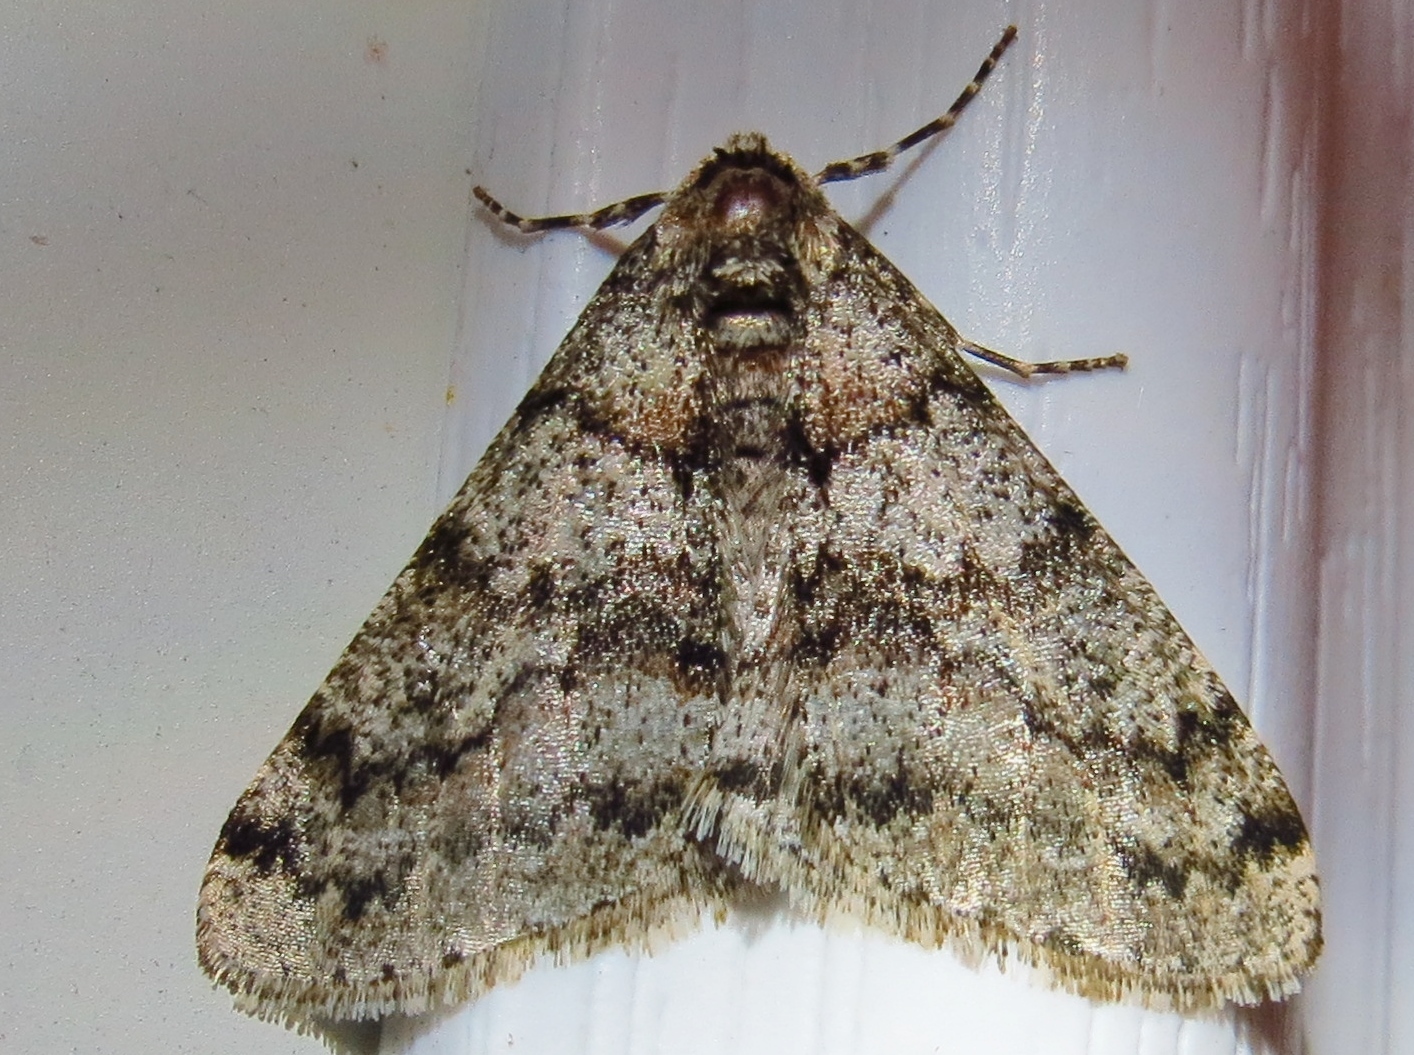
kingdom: Animalia
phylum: Arthropoda
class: Insecta
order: Lepidoptera
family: Geometridae
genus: Phigalia
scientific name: Phigalia denticulata
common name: Toothed phigalia
